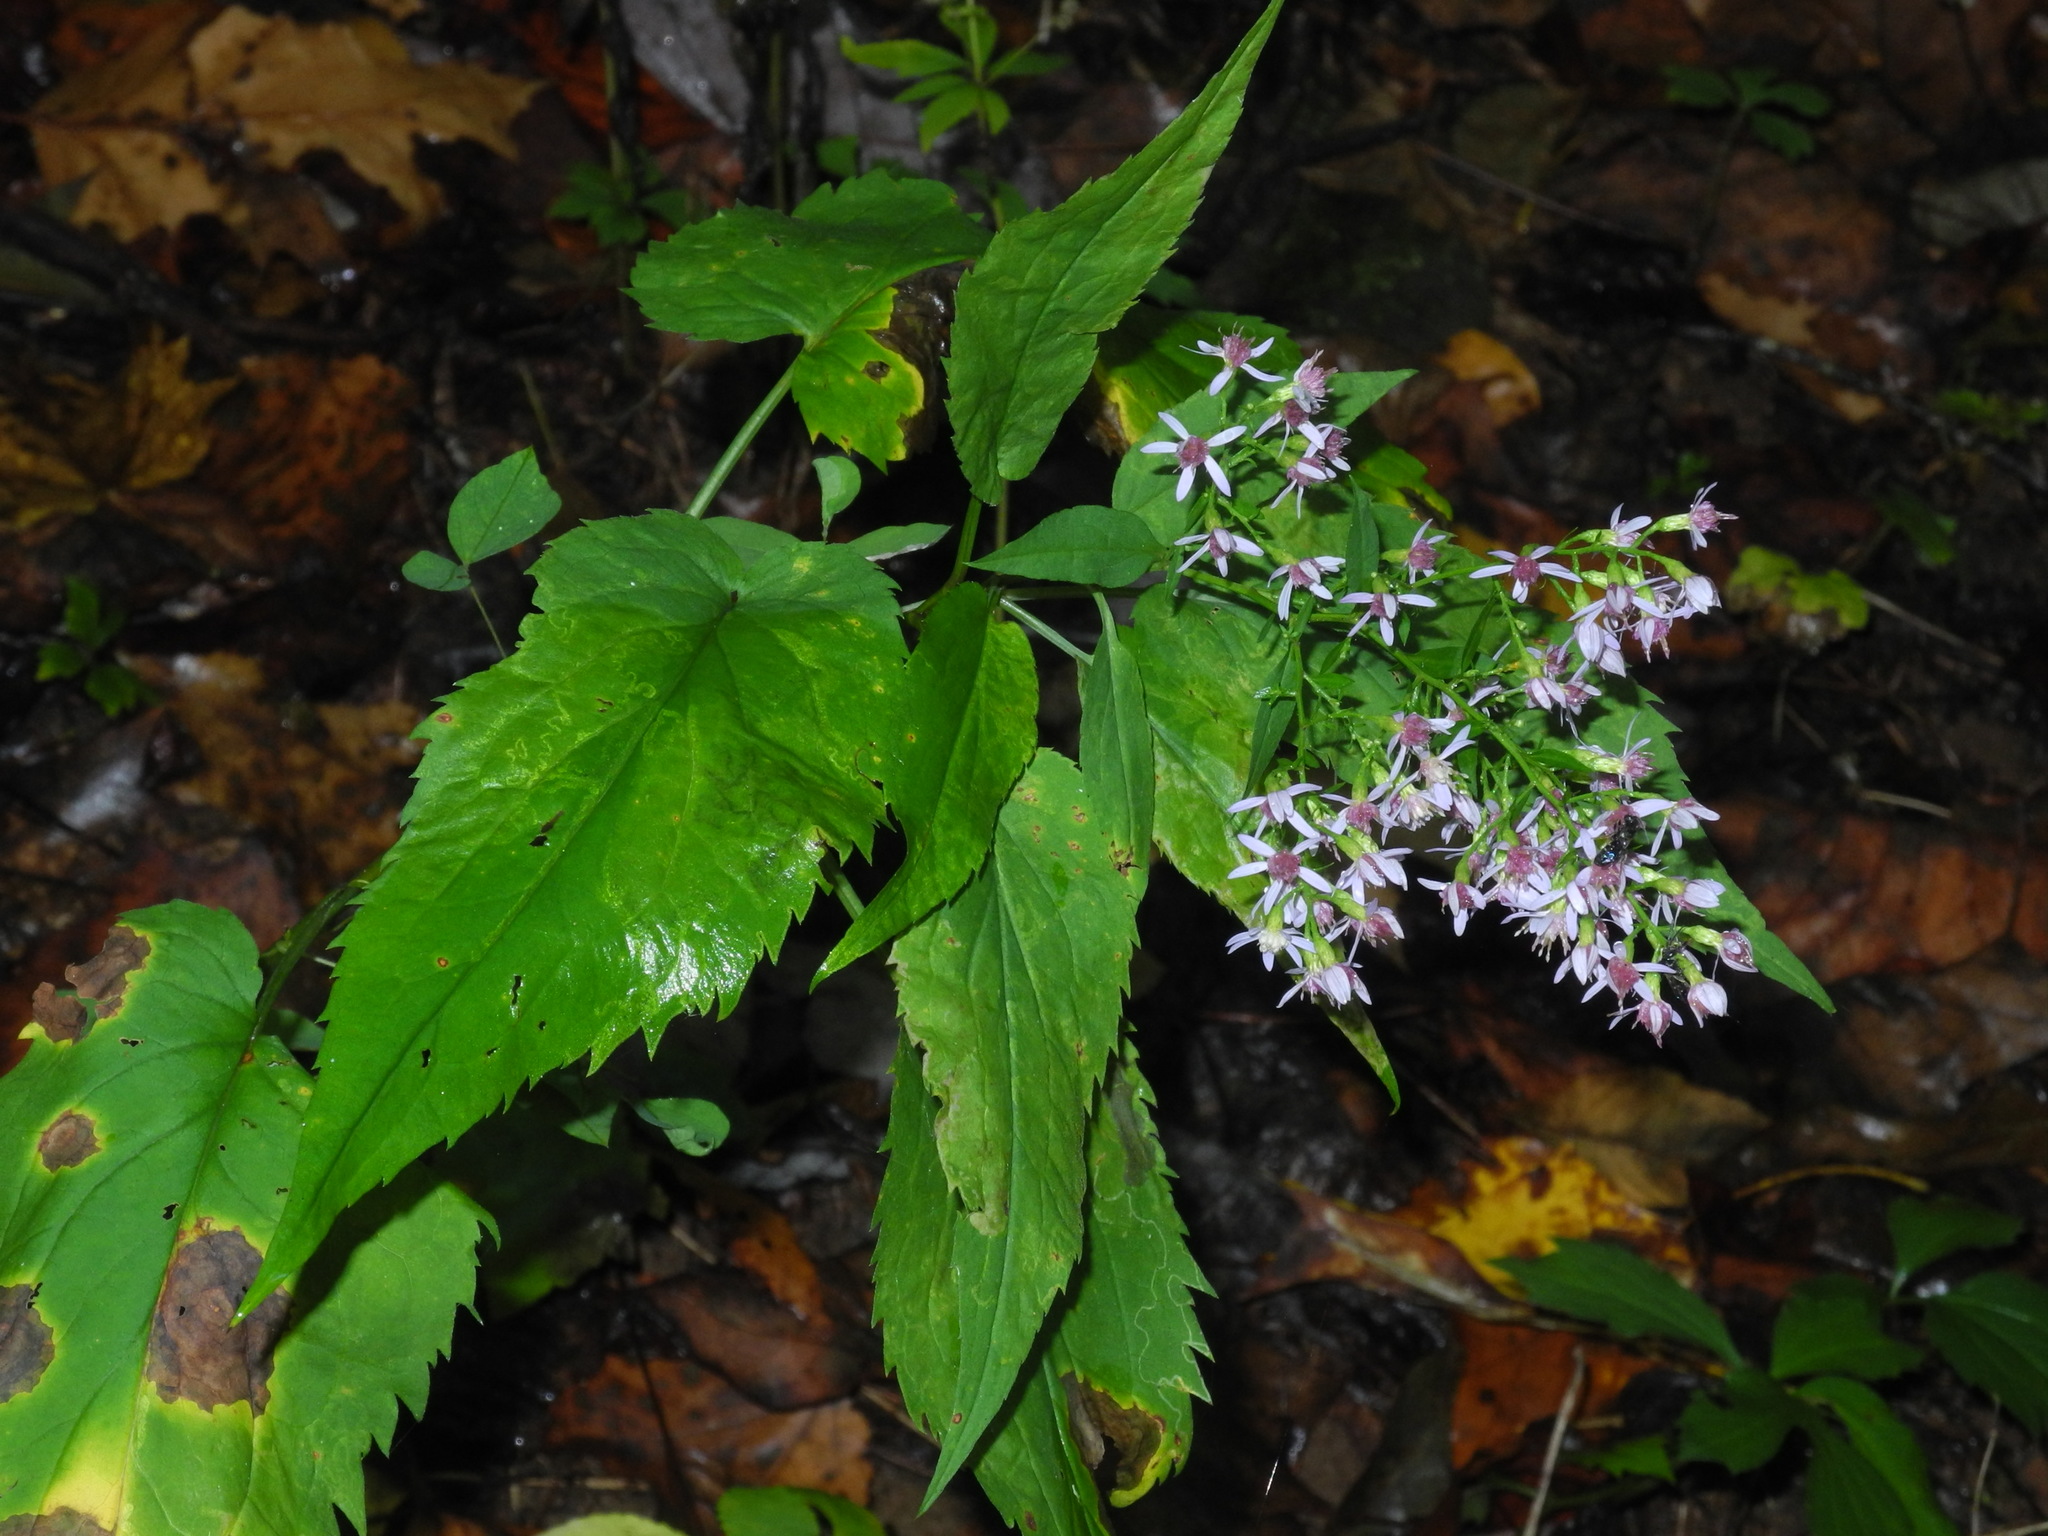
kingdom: Plantae
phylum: Tracheophyta
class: Magnoliopsida
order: Asterales
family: Asteraceae
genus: Symphyotrichum
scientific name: Symphyotrichum cordifolium
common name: Beeweed
